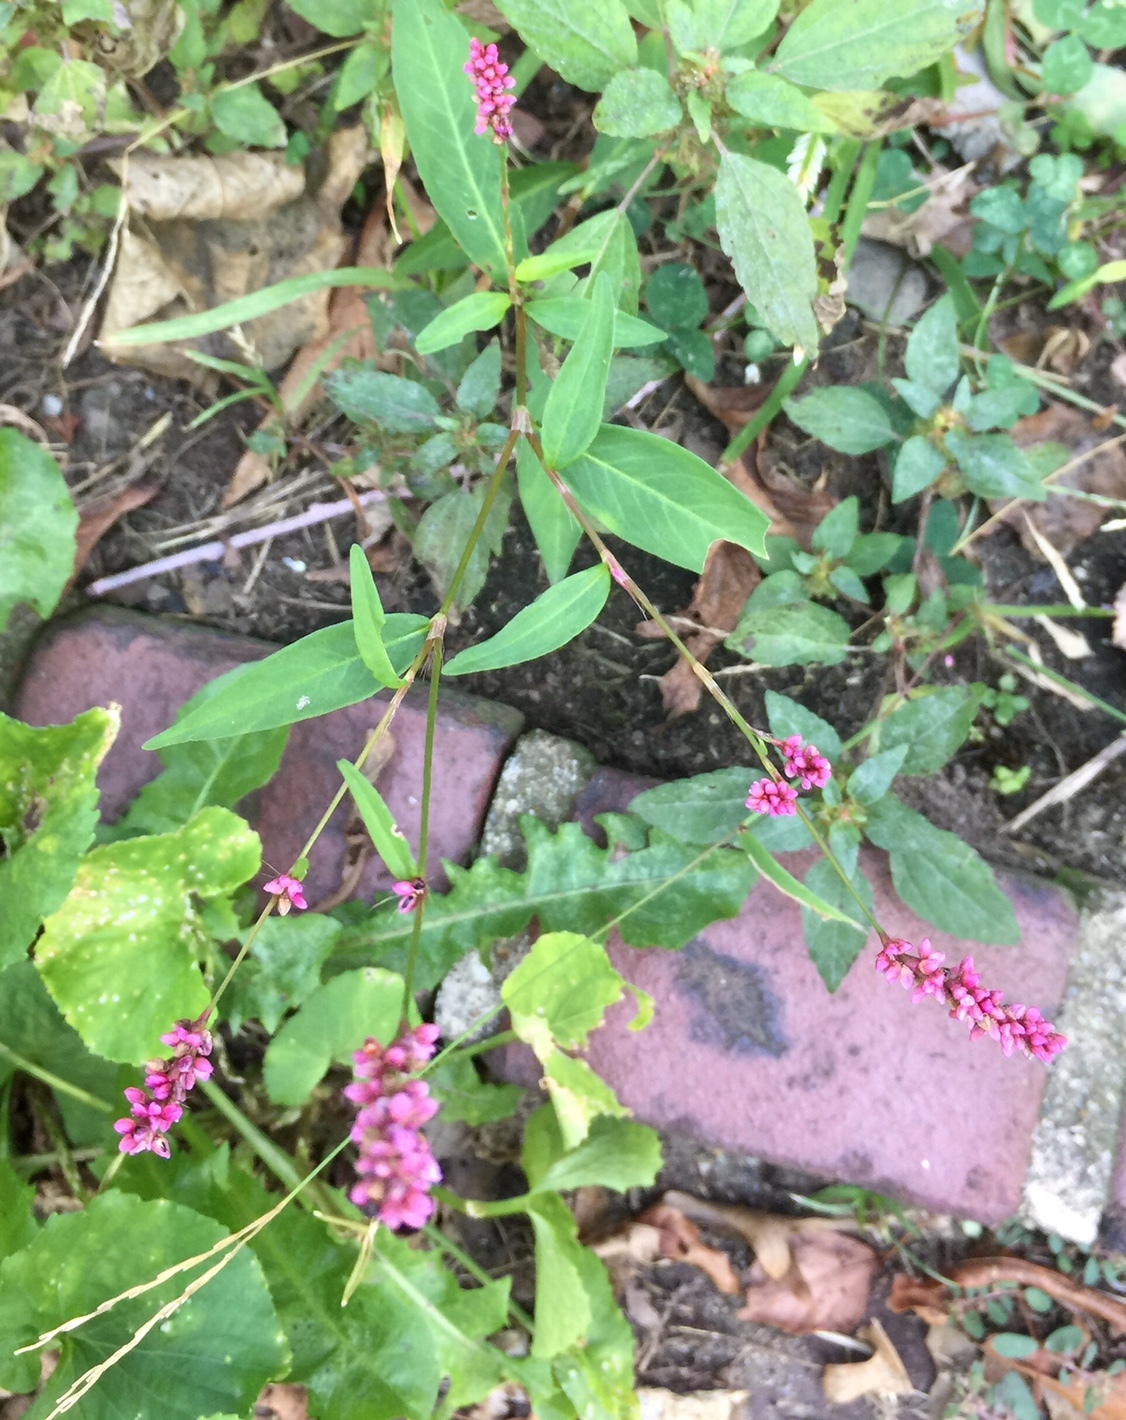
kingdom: Plantae
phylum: Tracheophyta
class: Magnoliopsida
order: Caryophyllales
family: Polygonaceae
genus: Persicaria
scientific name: Persicaria longiseta
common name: Bristly lady's-thumb
